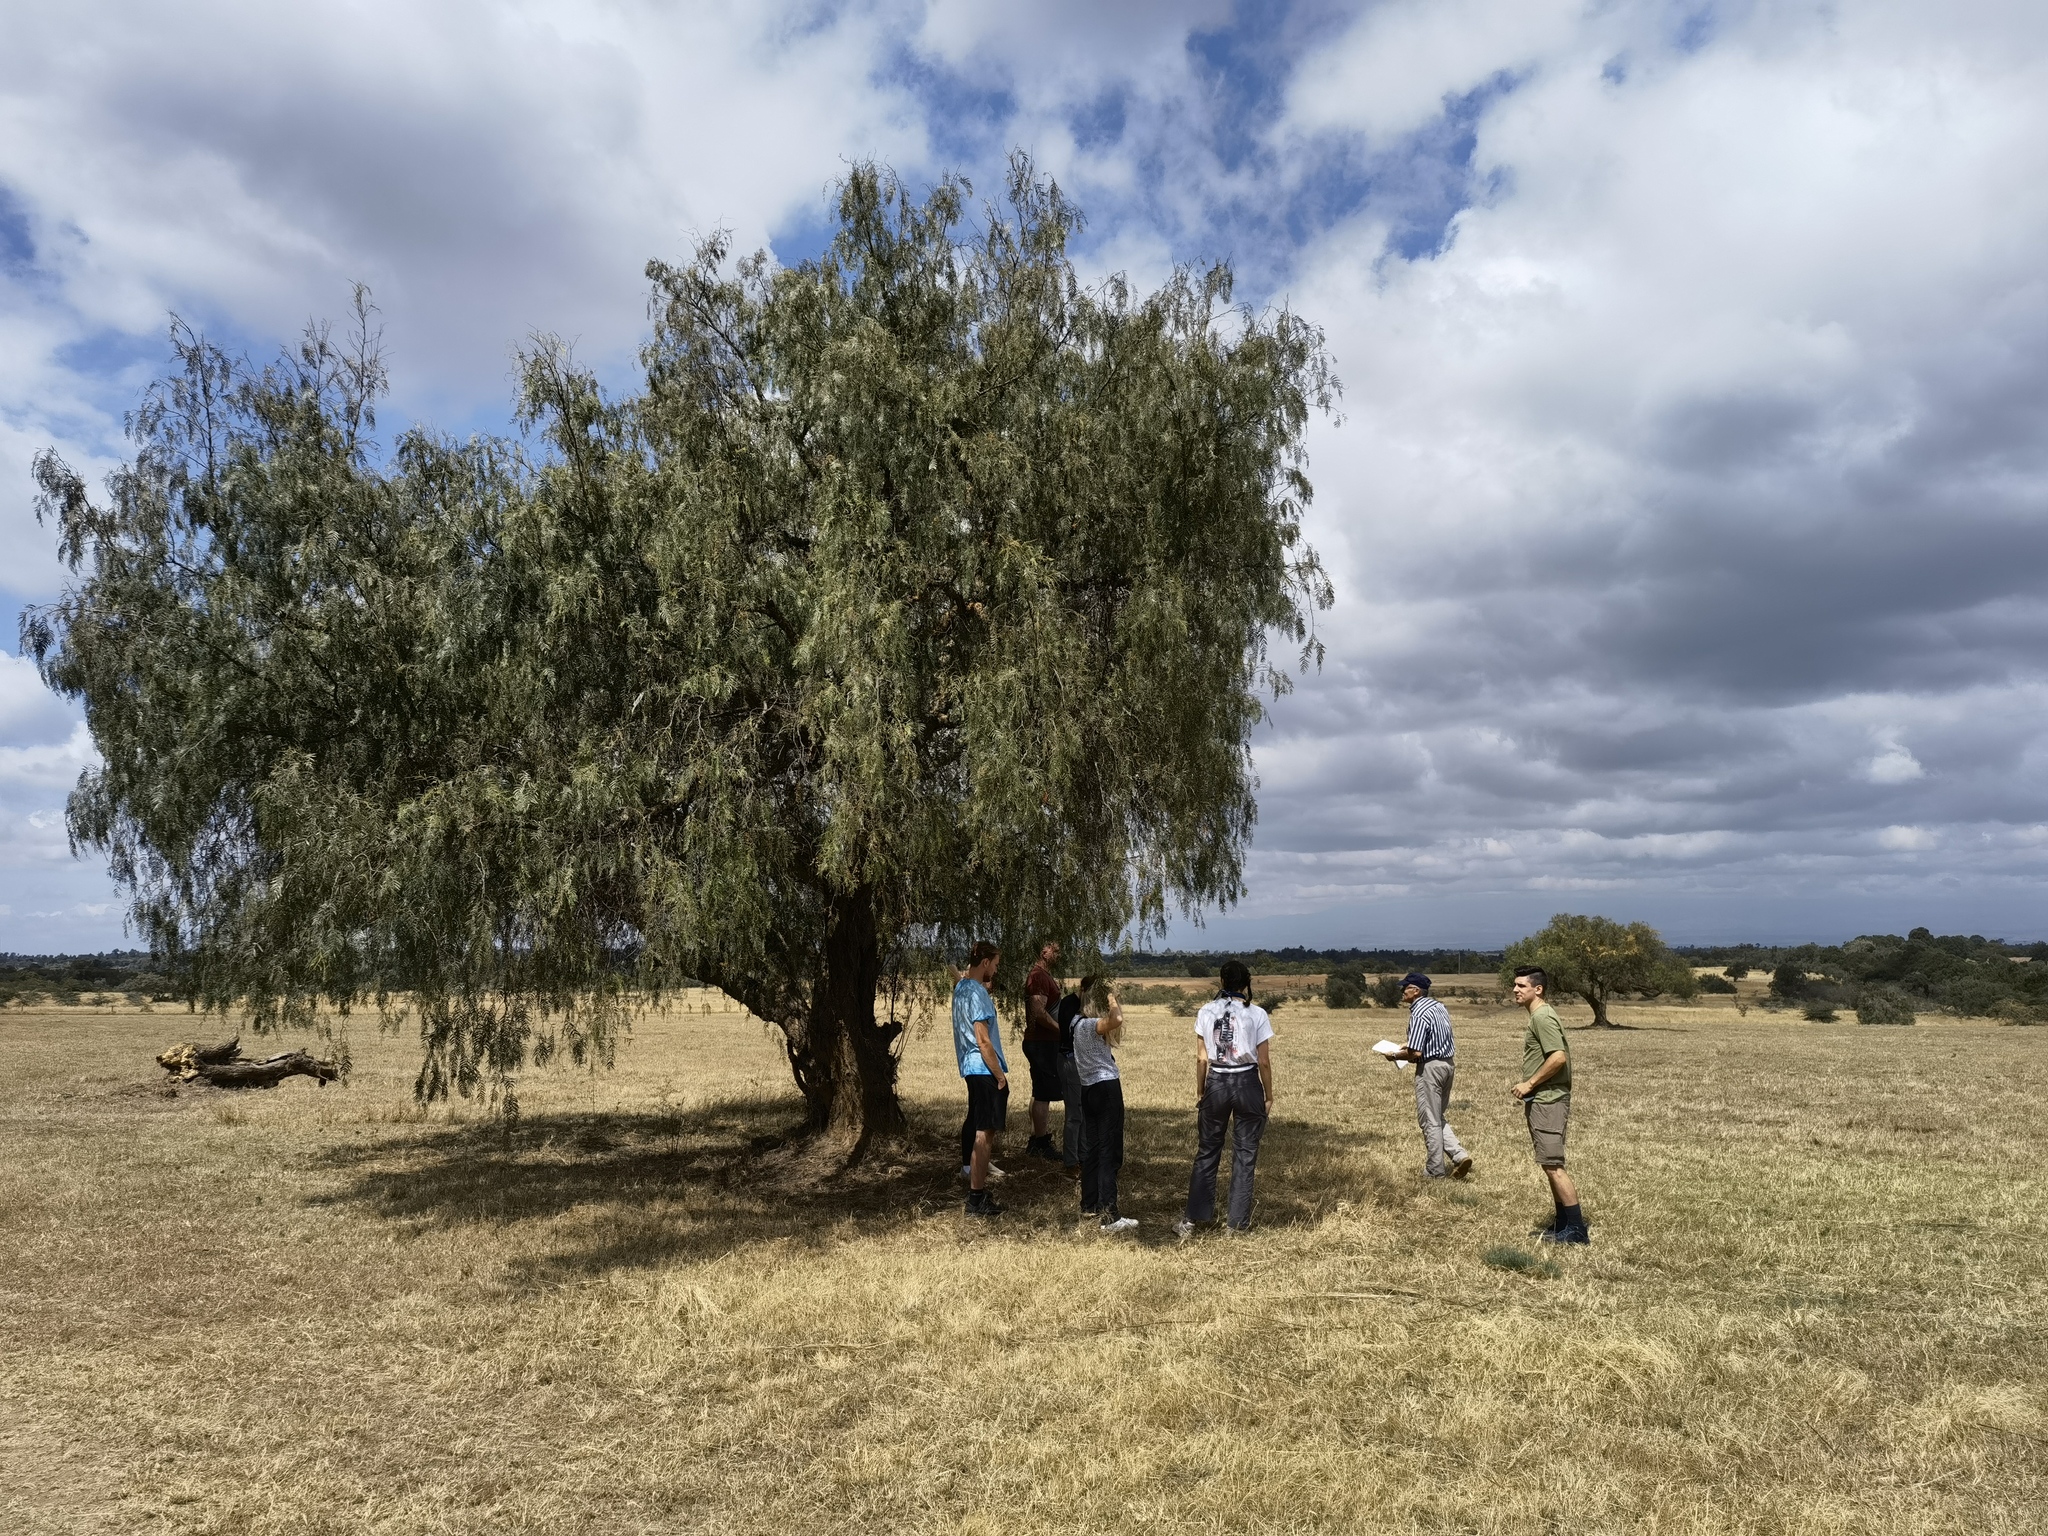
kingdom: Plantae
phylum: Tracheophyta
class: Magnoliopsida
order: Sapindales
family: Anacardiaceae
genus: Schinus
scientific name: Schinus molle
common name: Peruvian peppertree
